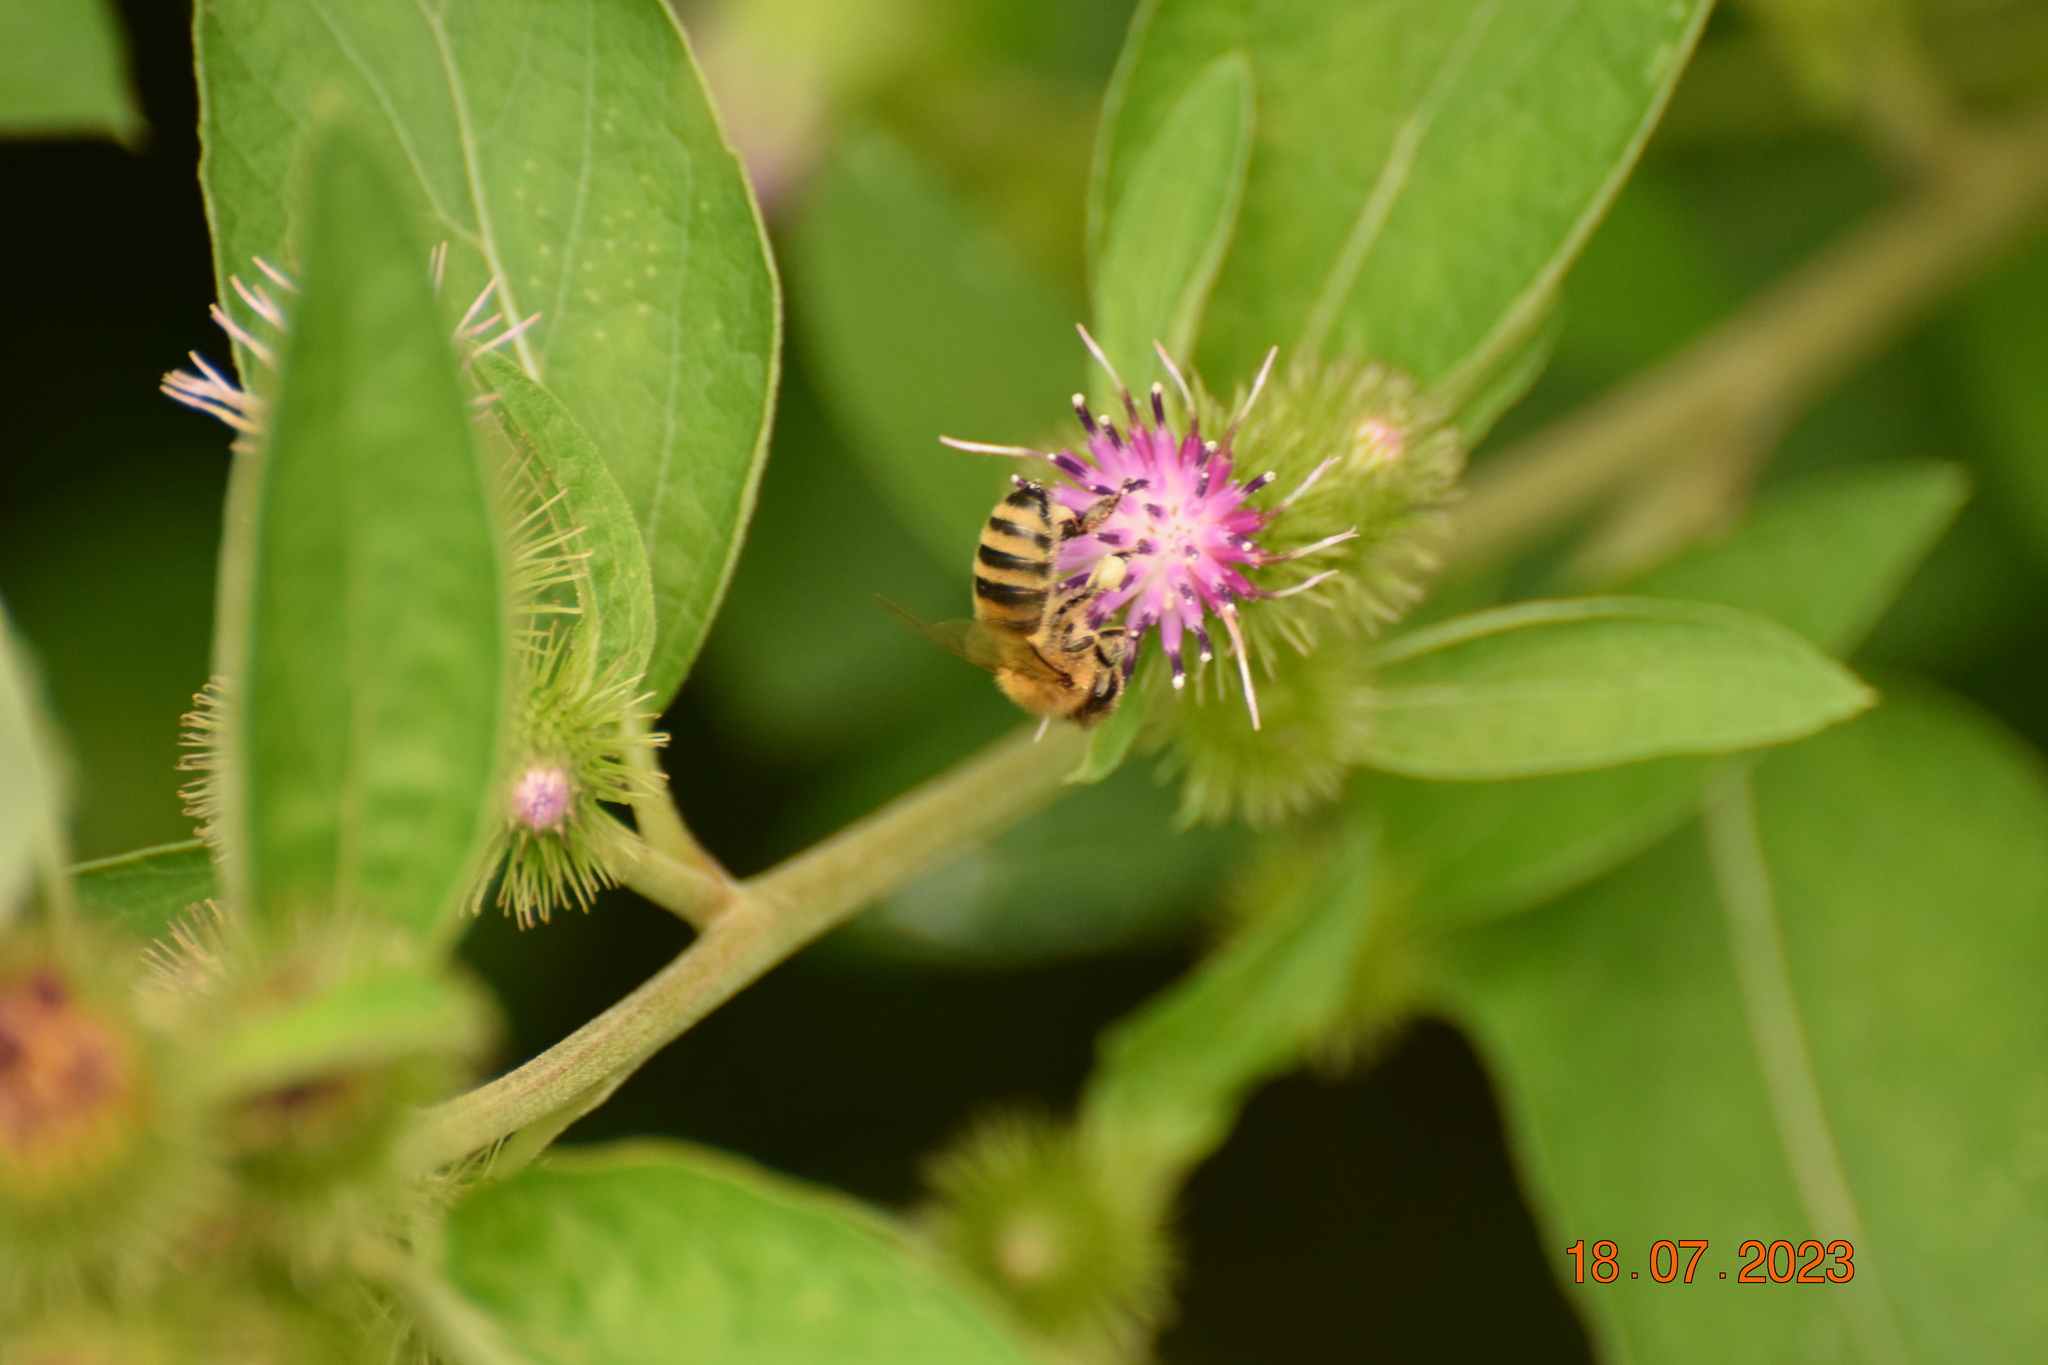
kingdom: Animalia
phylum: Arthropoda
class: Insecta
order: Hymenoptera
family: Apidae
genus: Apis
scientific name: Apis mellifera
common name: Honey bee
